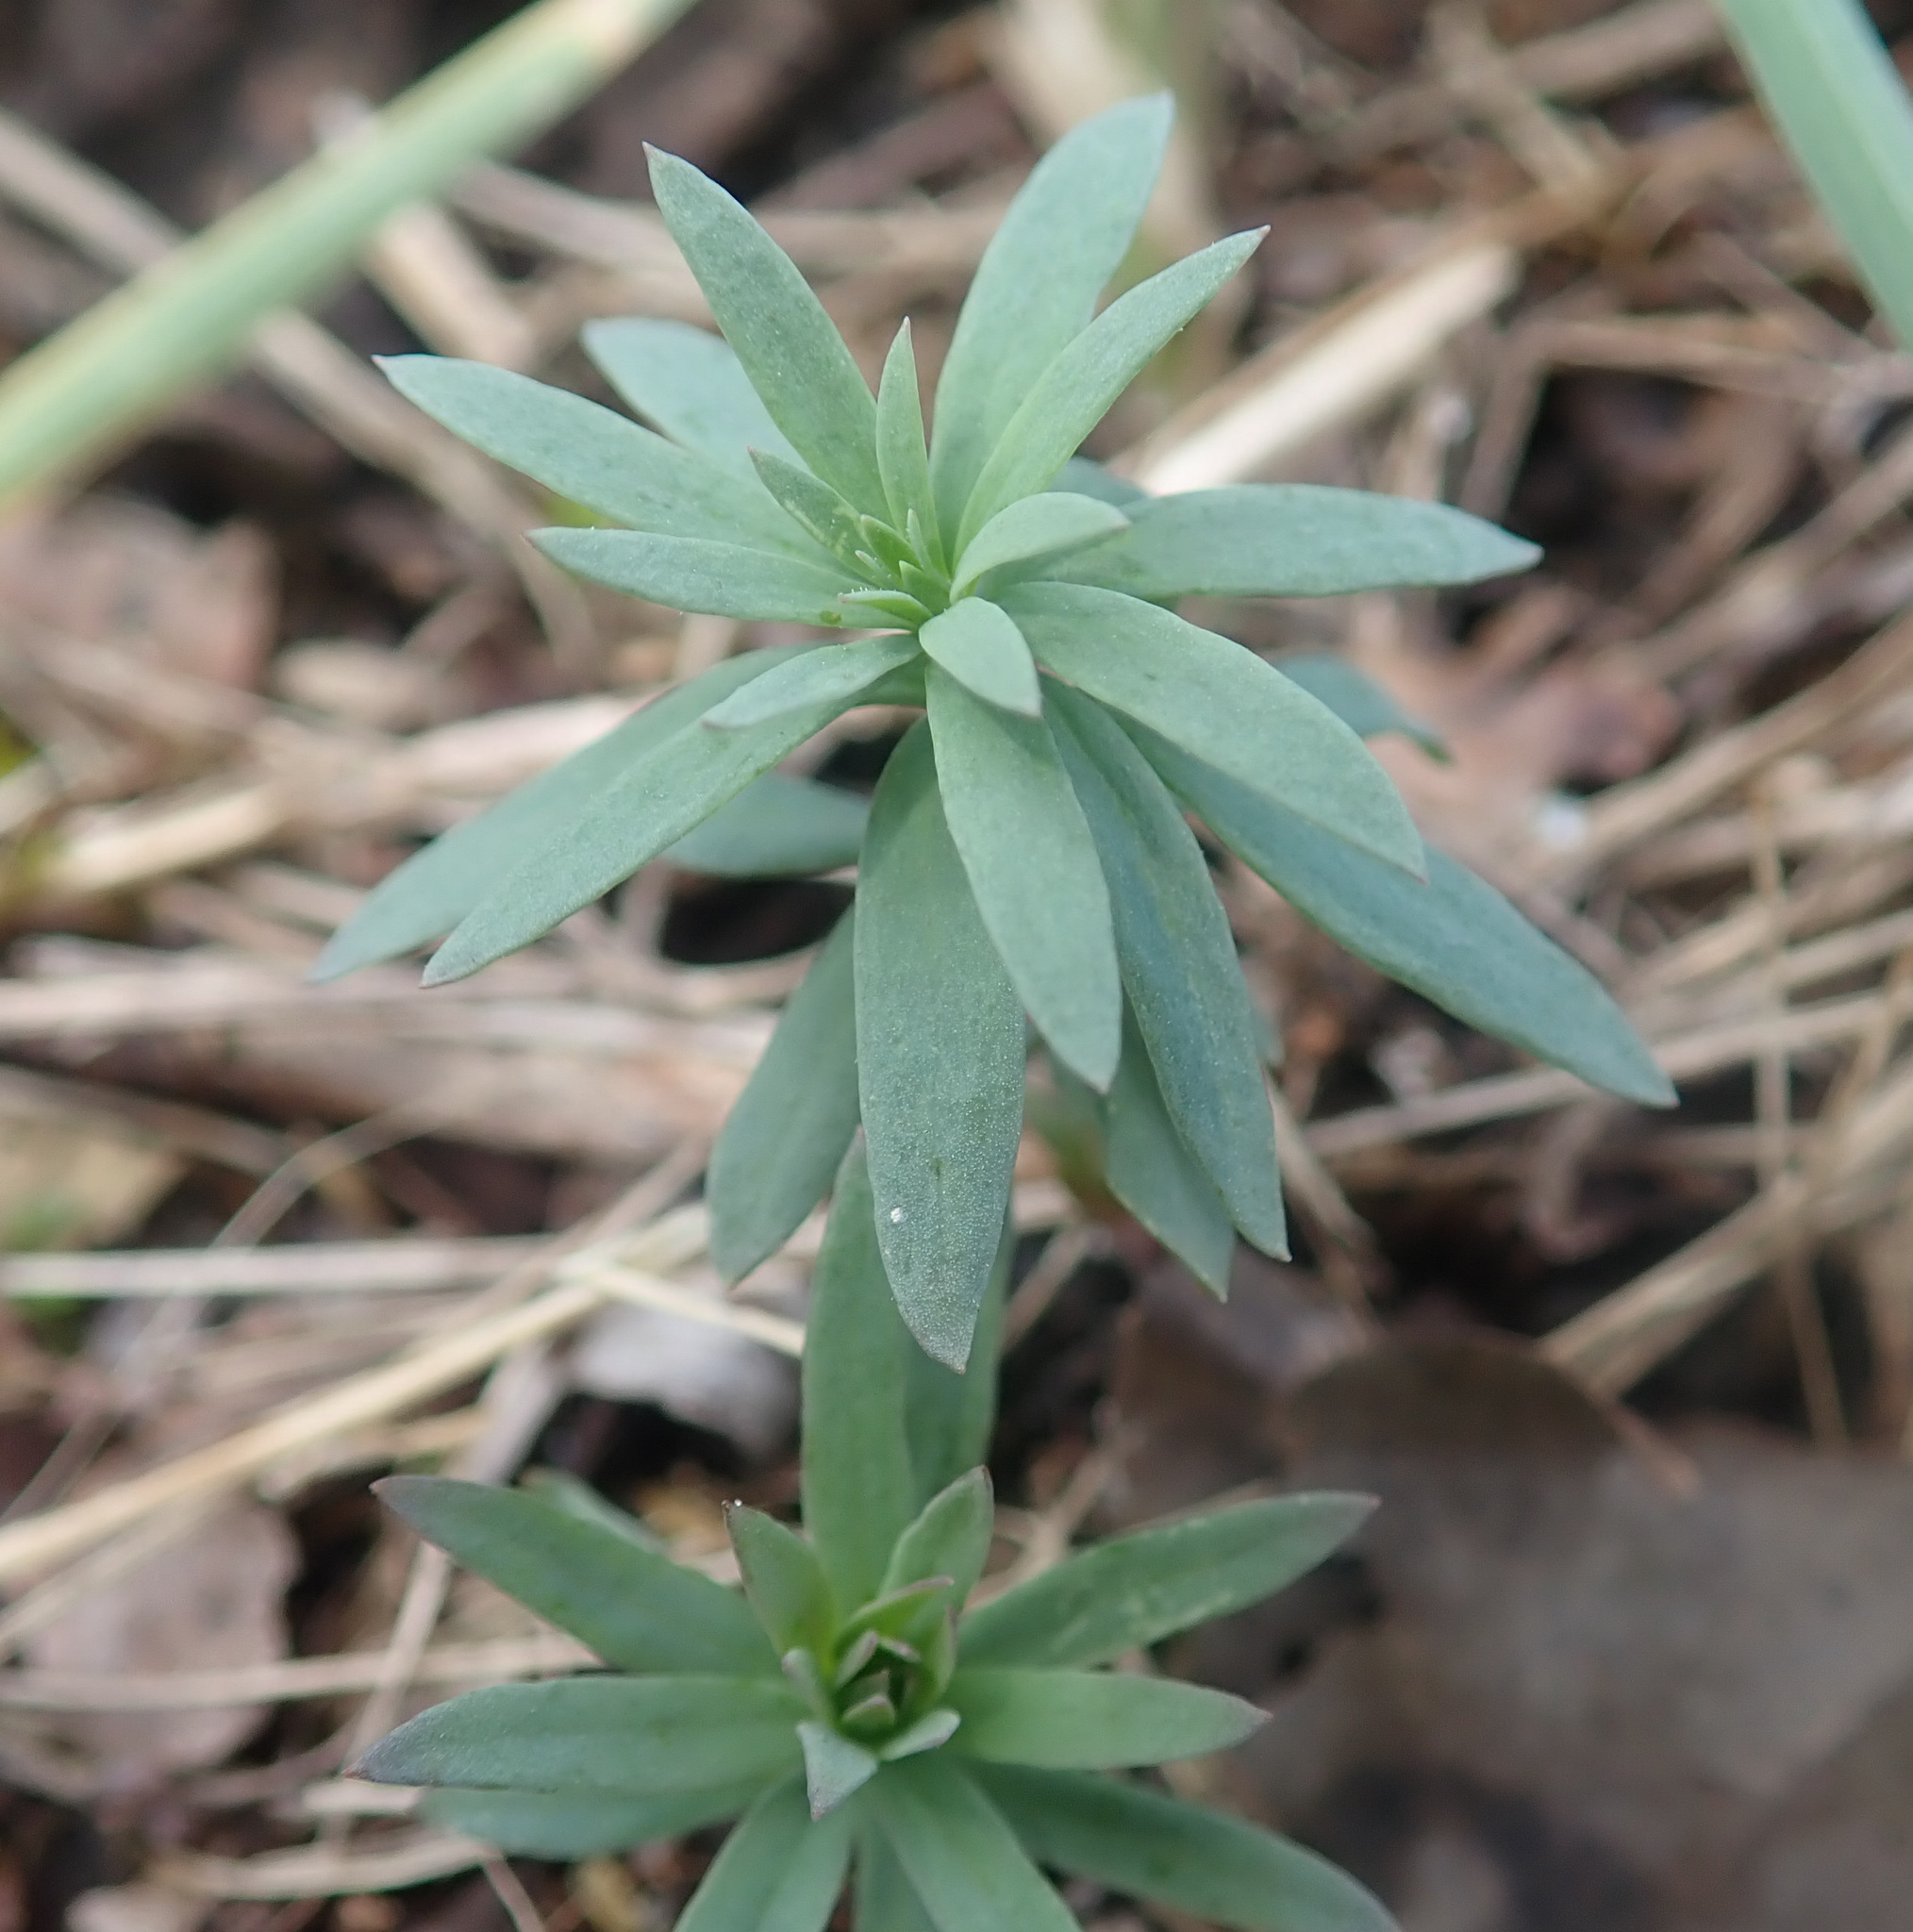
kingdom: Plantae
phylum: Tracheophyta
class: Magnoliopsida
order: Lamiales
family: Plantaginaceae
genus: Linaria
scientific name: Linaria vulgaris
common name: Butter and eggs
